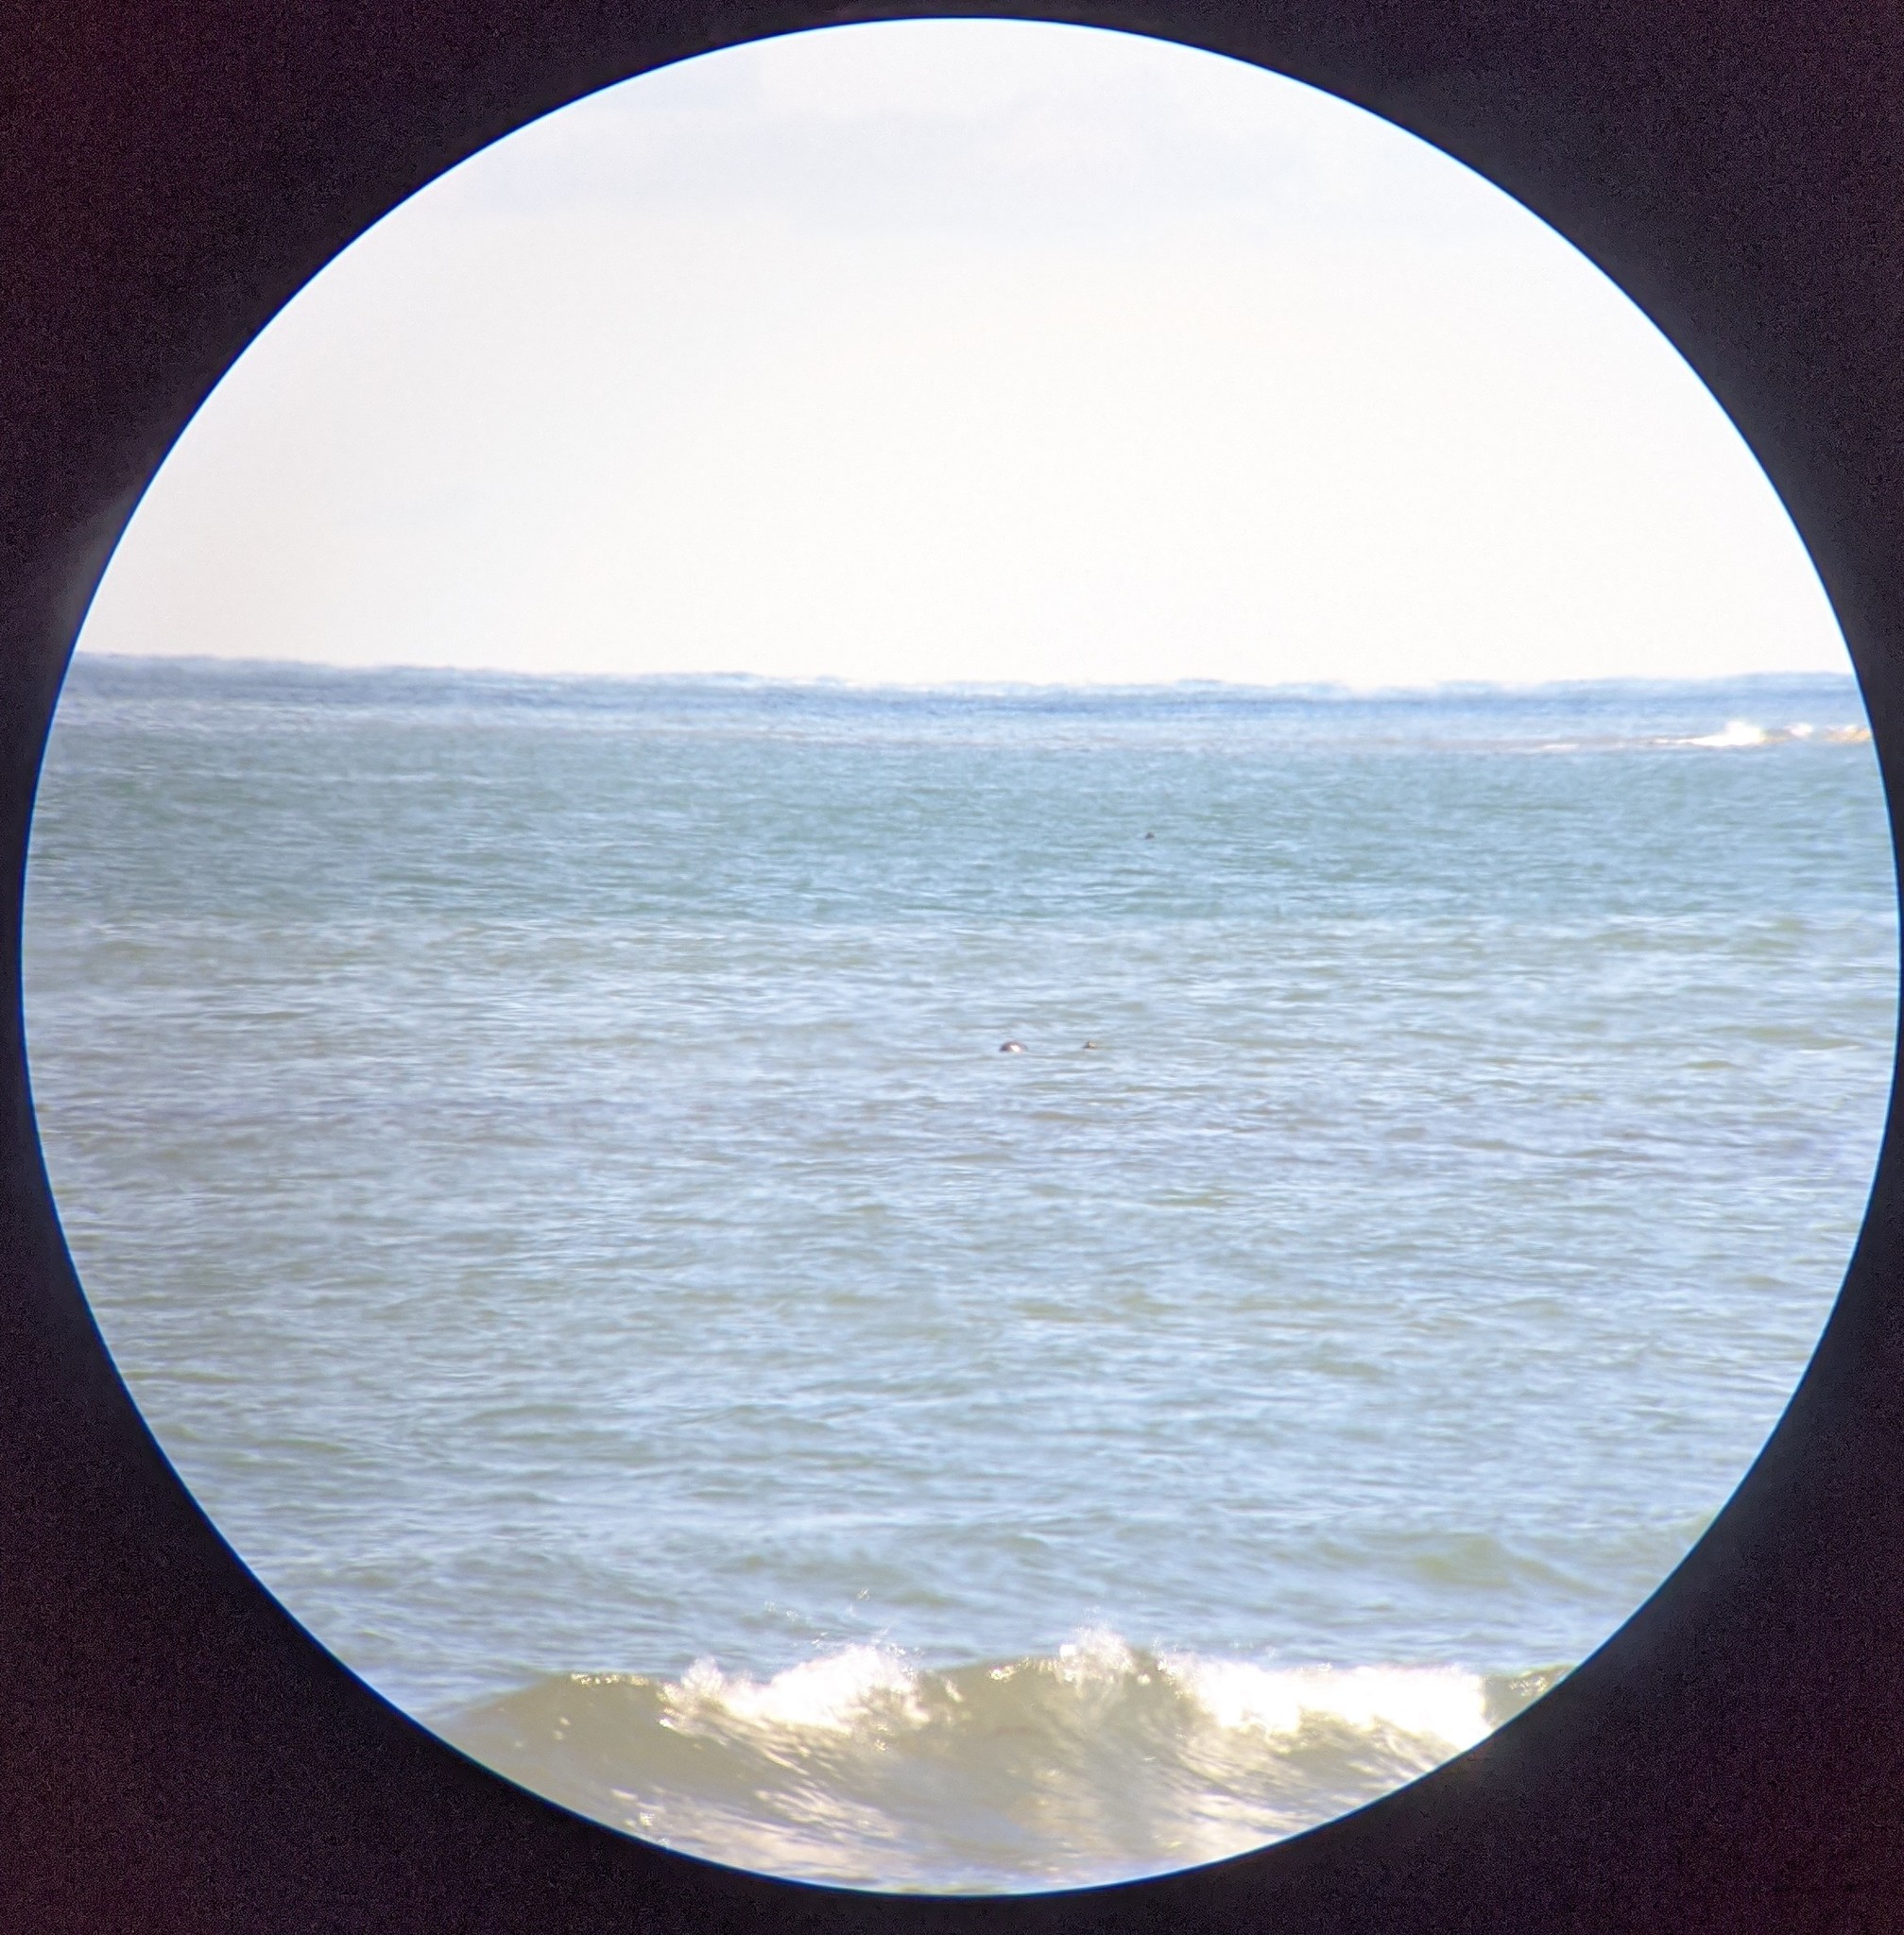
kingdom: Animalia
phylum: Chordata
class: Mammalia
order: Carnivora
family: Phocidae
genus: Halichoerus
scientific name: Halichoerus grypus
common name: Grey seal
